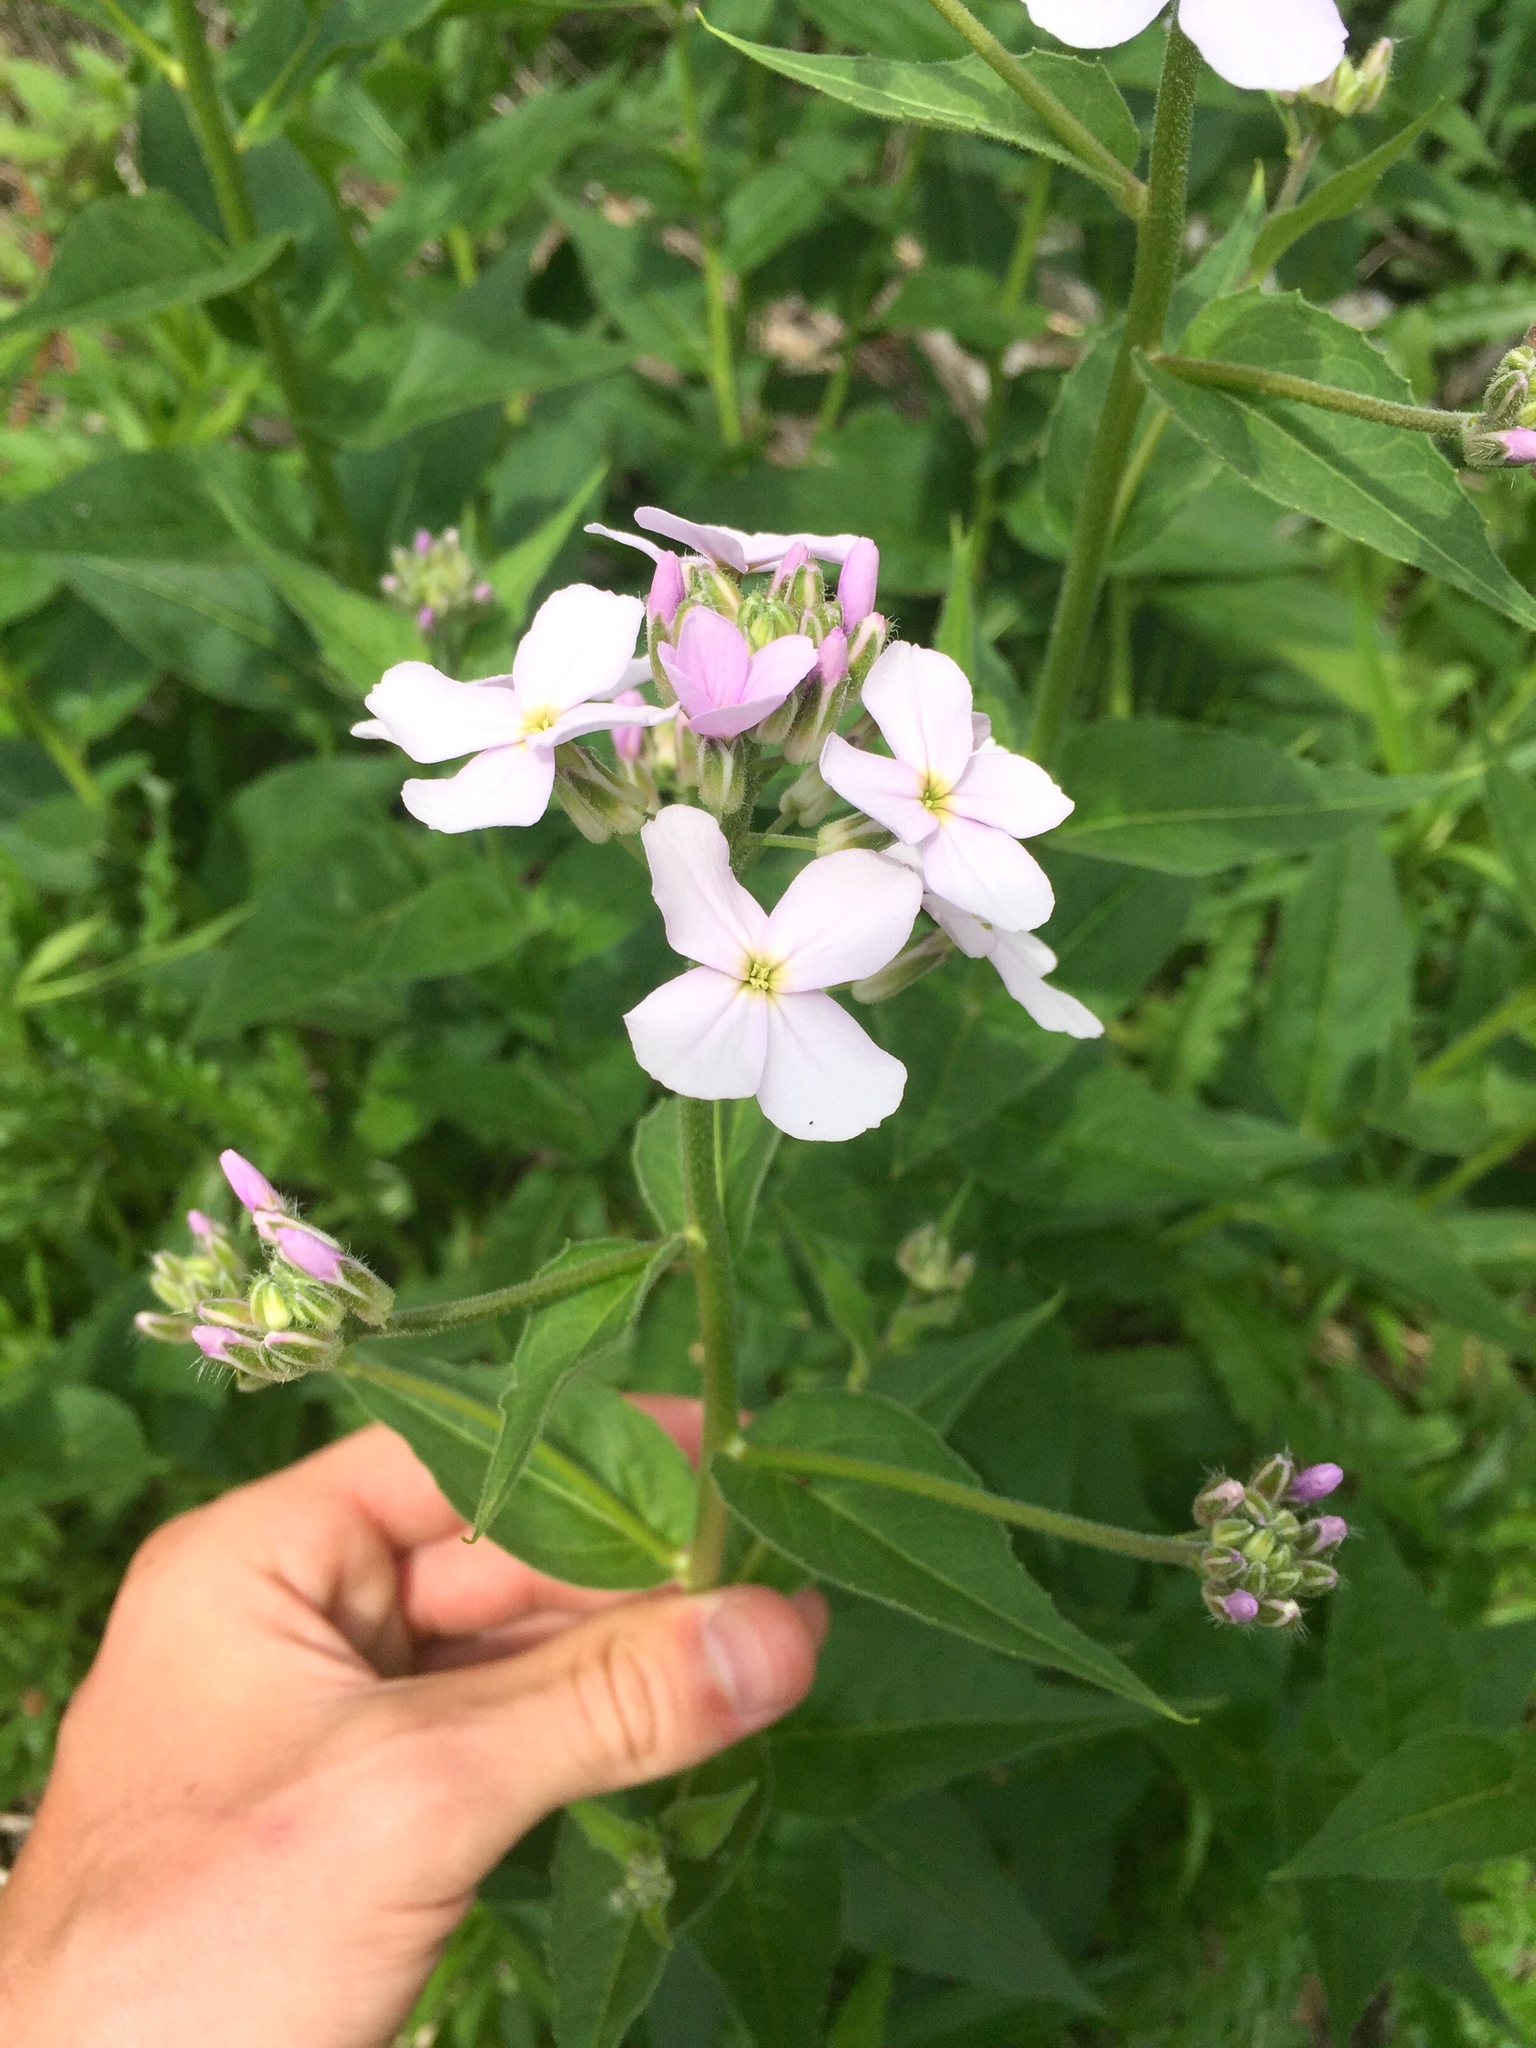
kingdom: Plantae
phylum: Tracheophyta
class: Magnoliopsida
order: Brassicales
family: Brassicaceae
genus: Hesperis
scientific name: Hesperis matronalis
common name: Dame's-violet
